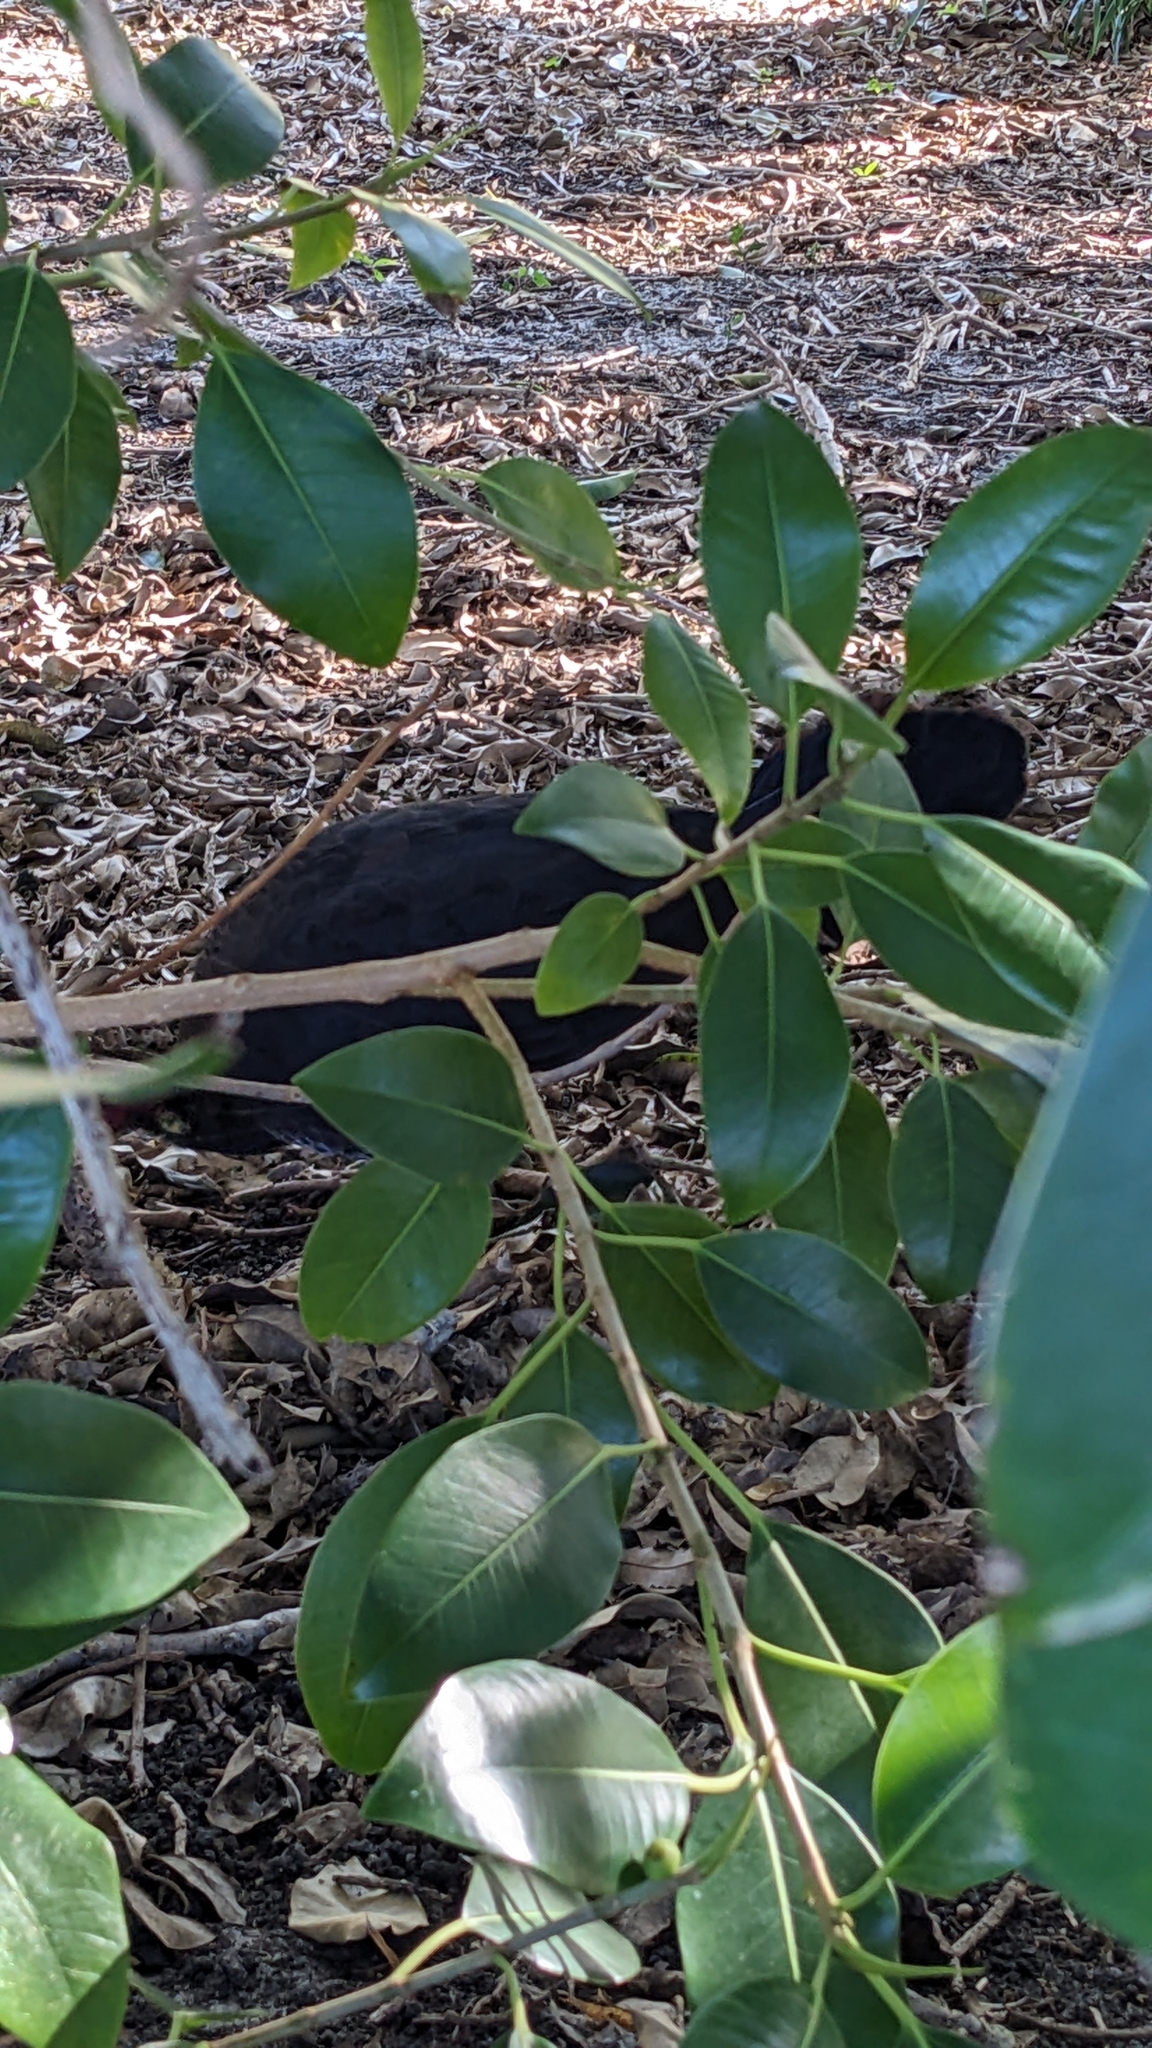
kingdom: Animalia
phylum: Chordata
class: Aves
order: Galliformes
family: Megapodiidae
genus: Alectura
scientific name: Alectura lathami
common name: Australian brushturkey
